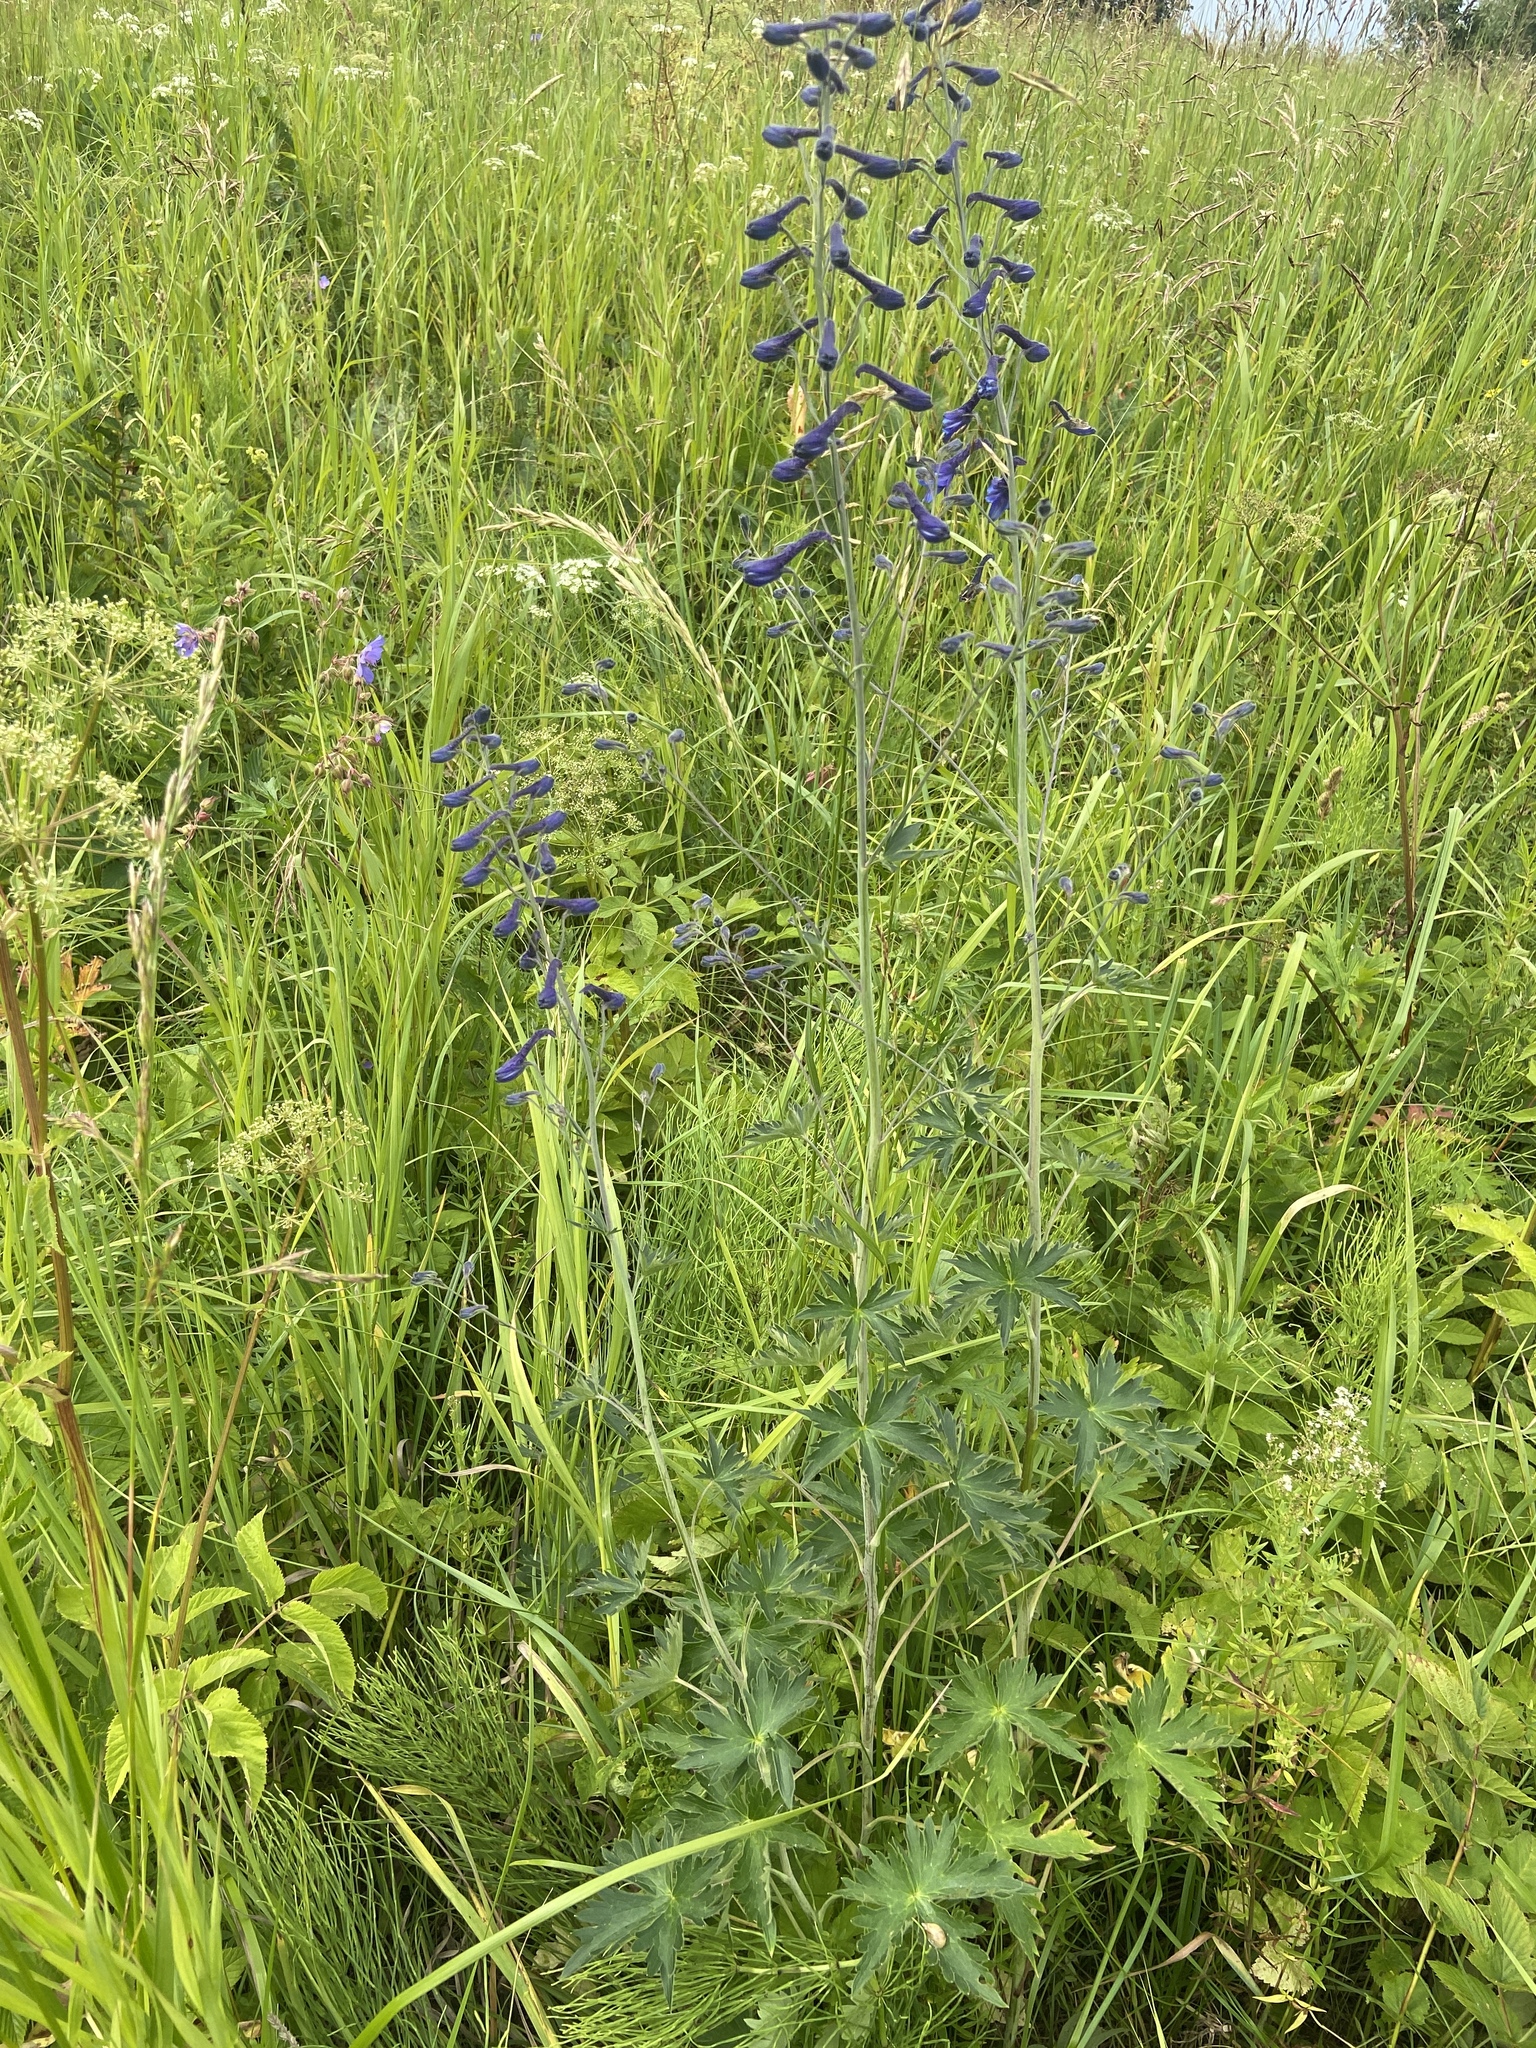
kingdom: Plantae
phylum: Tracheophyta
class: Magnoliopsida
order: Ranunculales
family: Ranunculaceae
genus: Delphinium
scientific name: Delphinium elatum
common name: Candle larkspur
